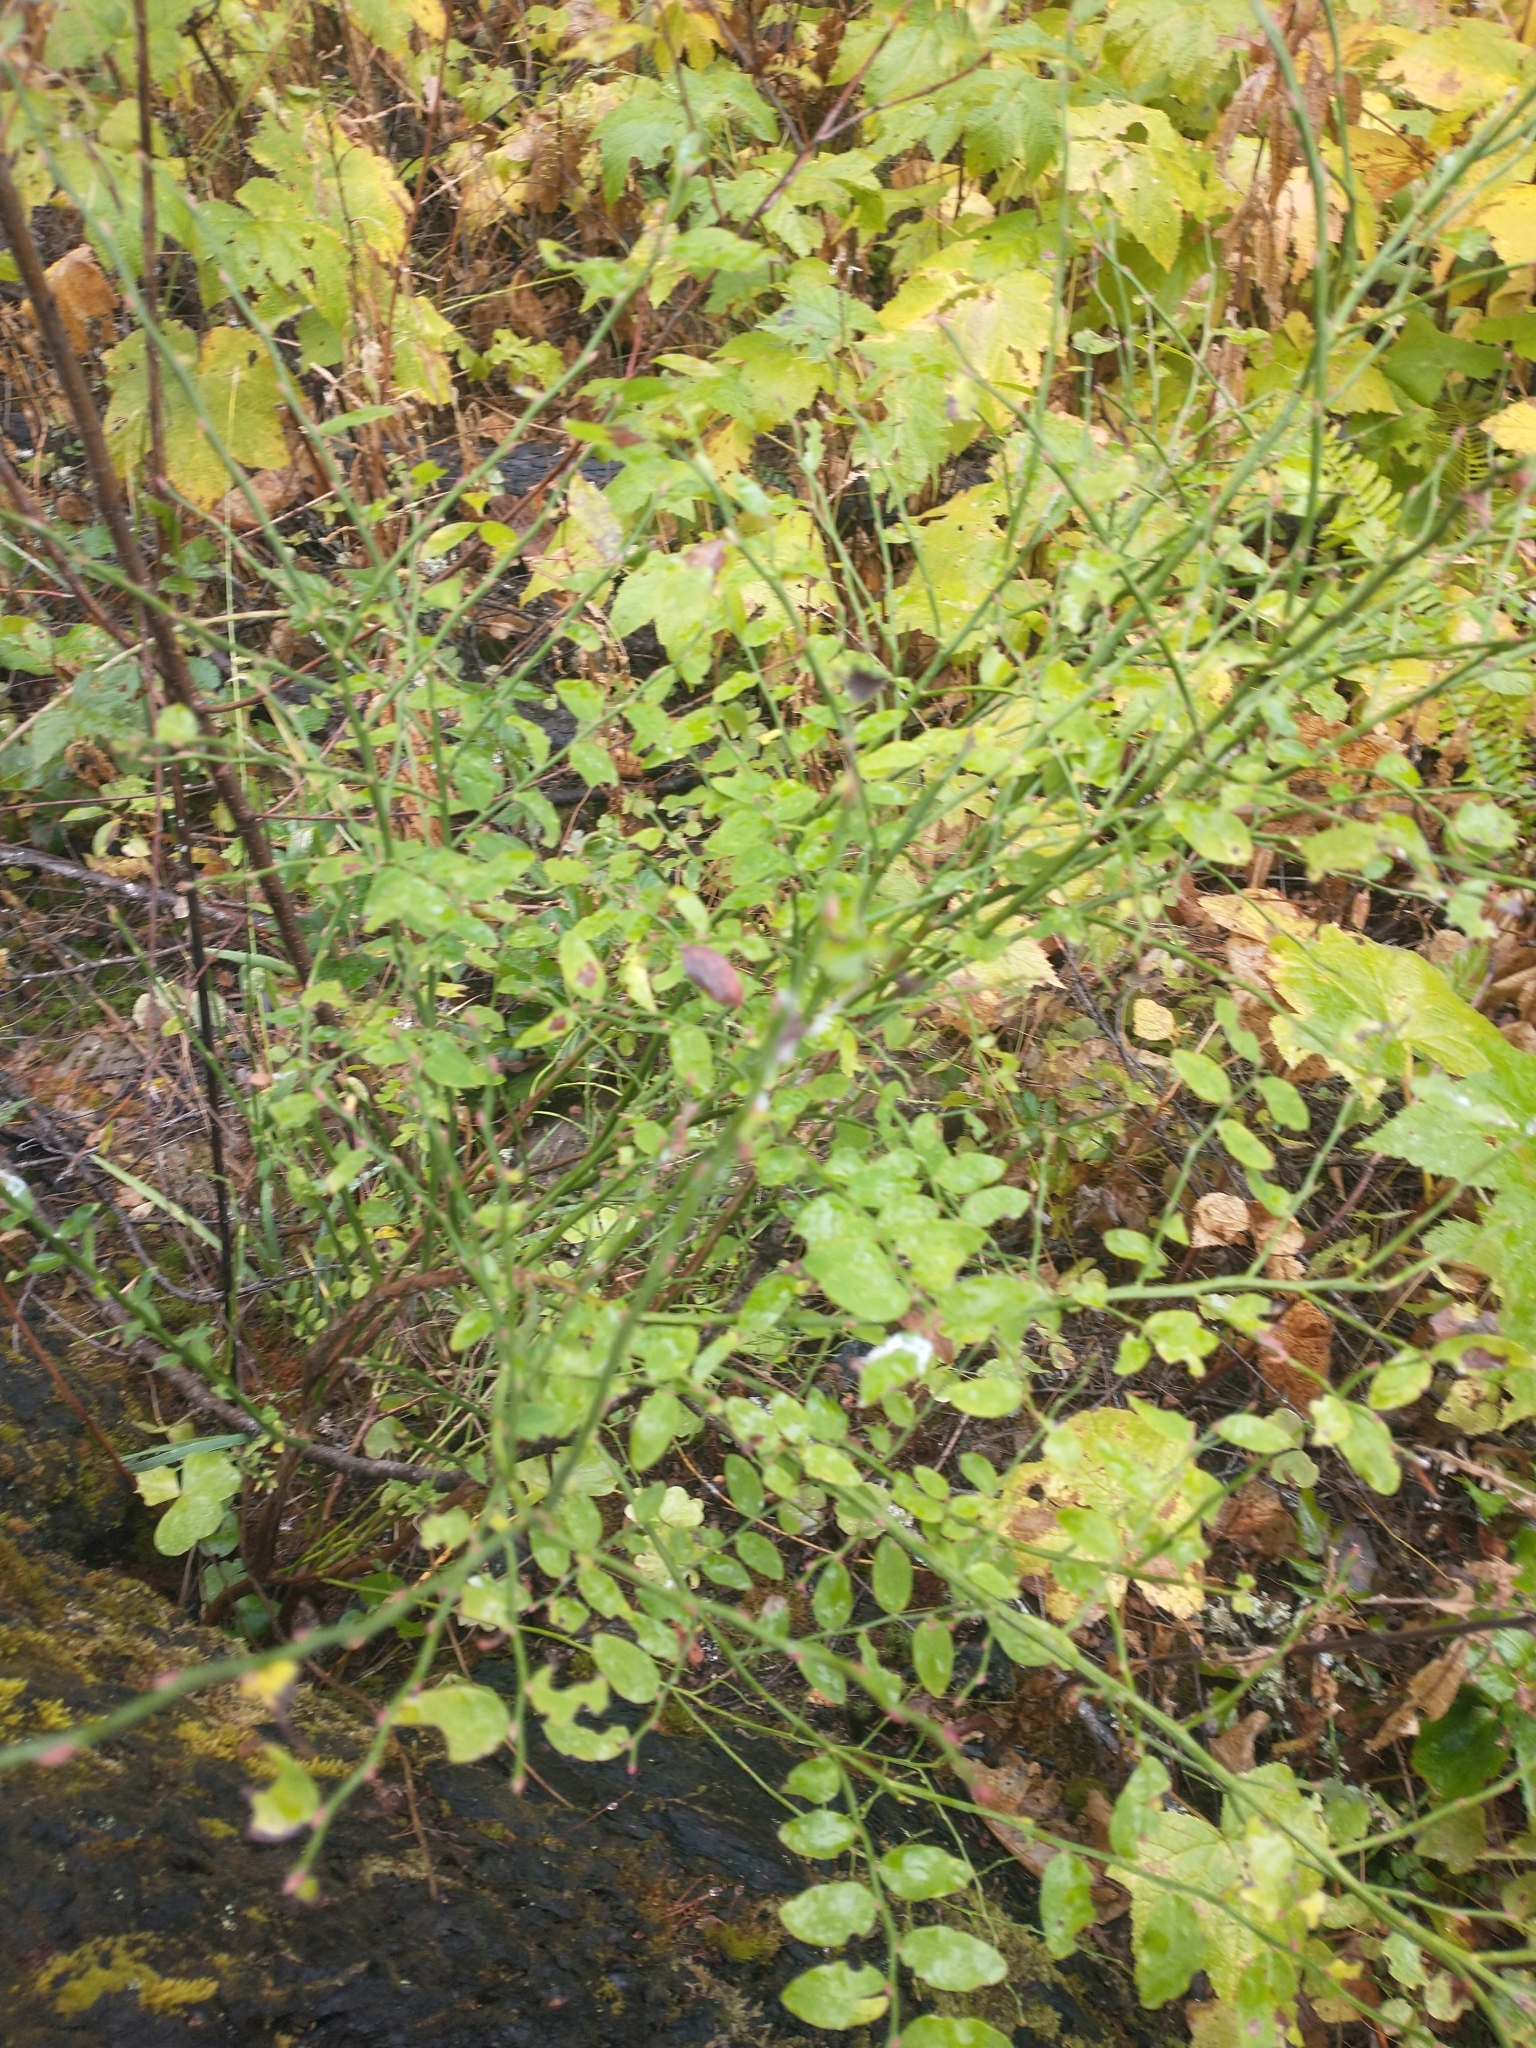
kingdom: Plantae
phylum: Tracheophyta
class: Magnoliopsida
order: Ericales
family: Ericaceae
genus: Vaccinium
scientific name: Vaccinium parvifolium
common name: Red-huckleberry
